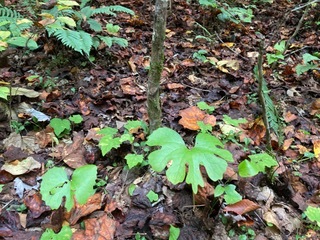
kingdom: Plantae
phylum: Tracheophyta
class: Magnoliopsida
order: Ranunculales
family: Papaveraceae
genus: Sanguinaria
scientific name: Sanguinaria canadensis
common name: Bloodroot
